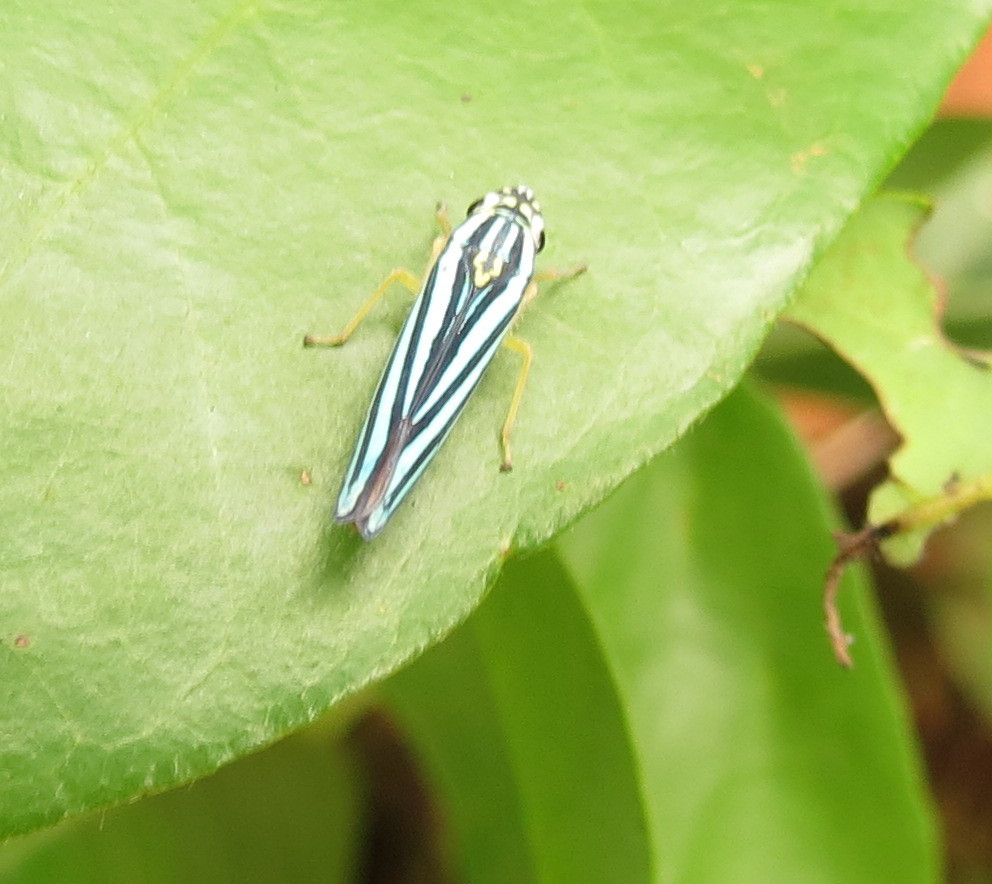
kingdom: Animalia
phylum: Arthropoda
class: Insecta
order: Hemiptera
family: Cicadellidae
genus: Tettigoniella
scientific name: Tettigoniella cosmopolita
